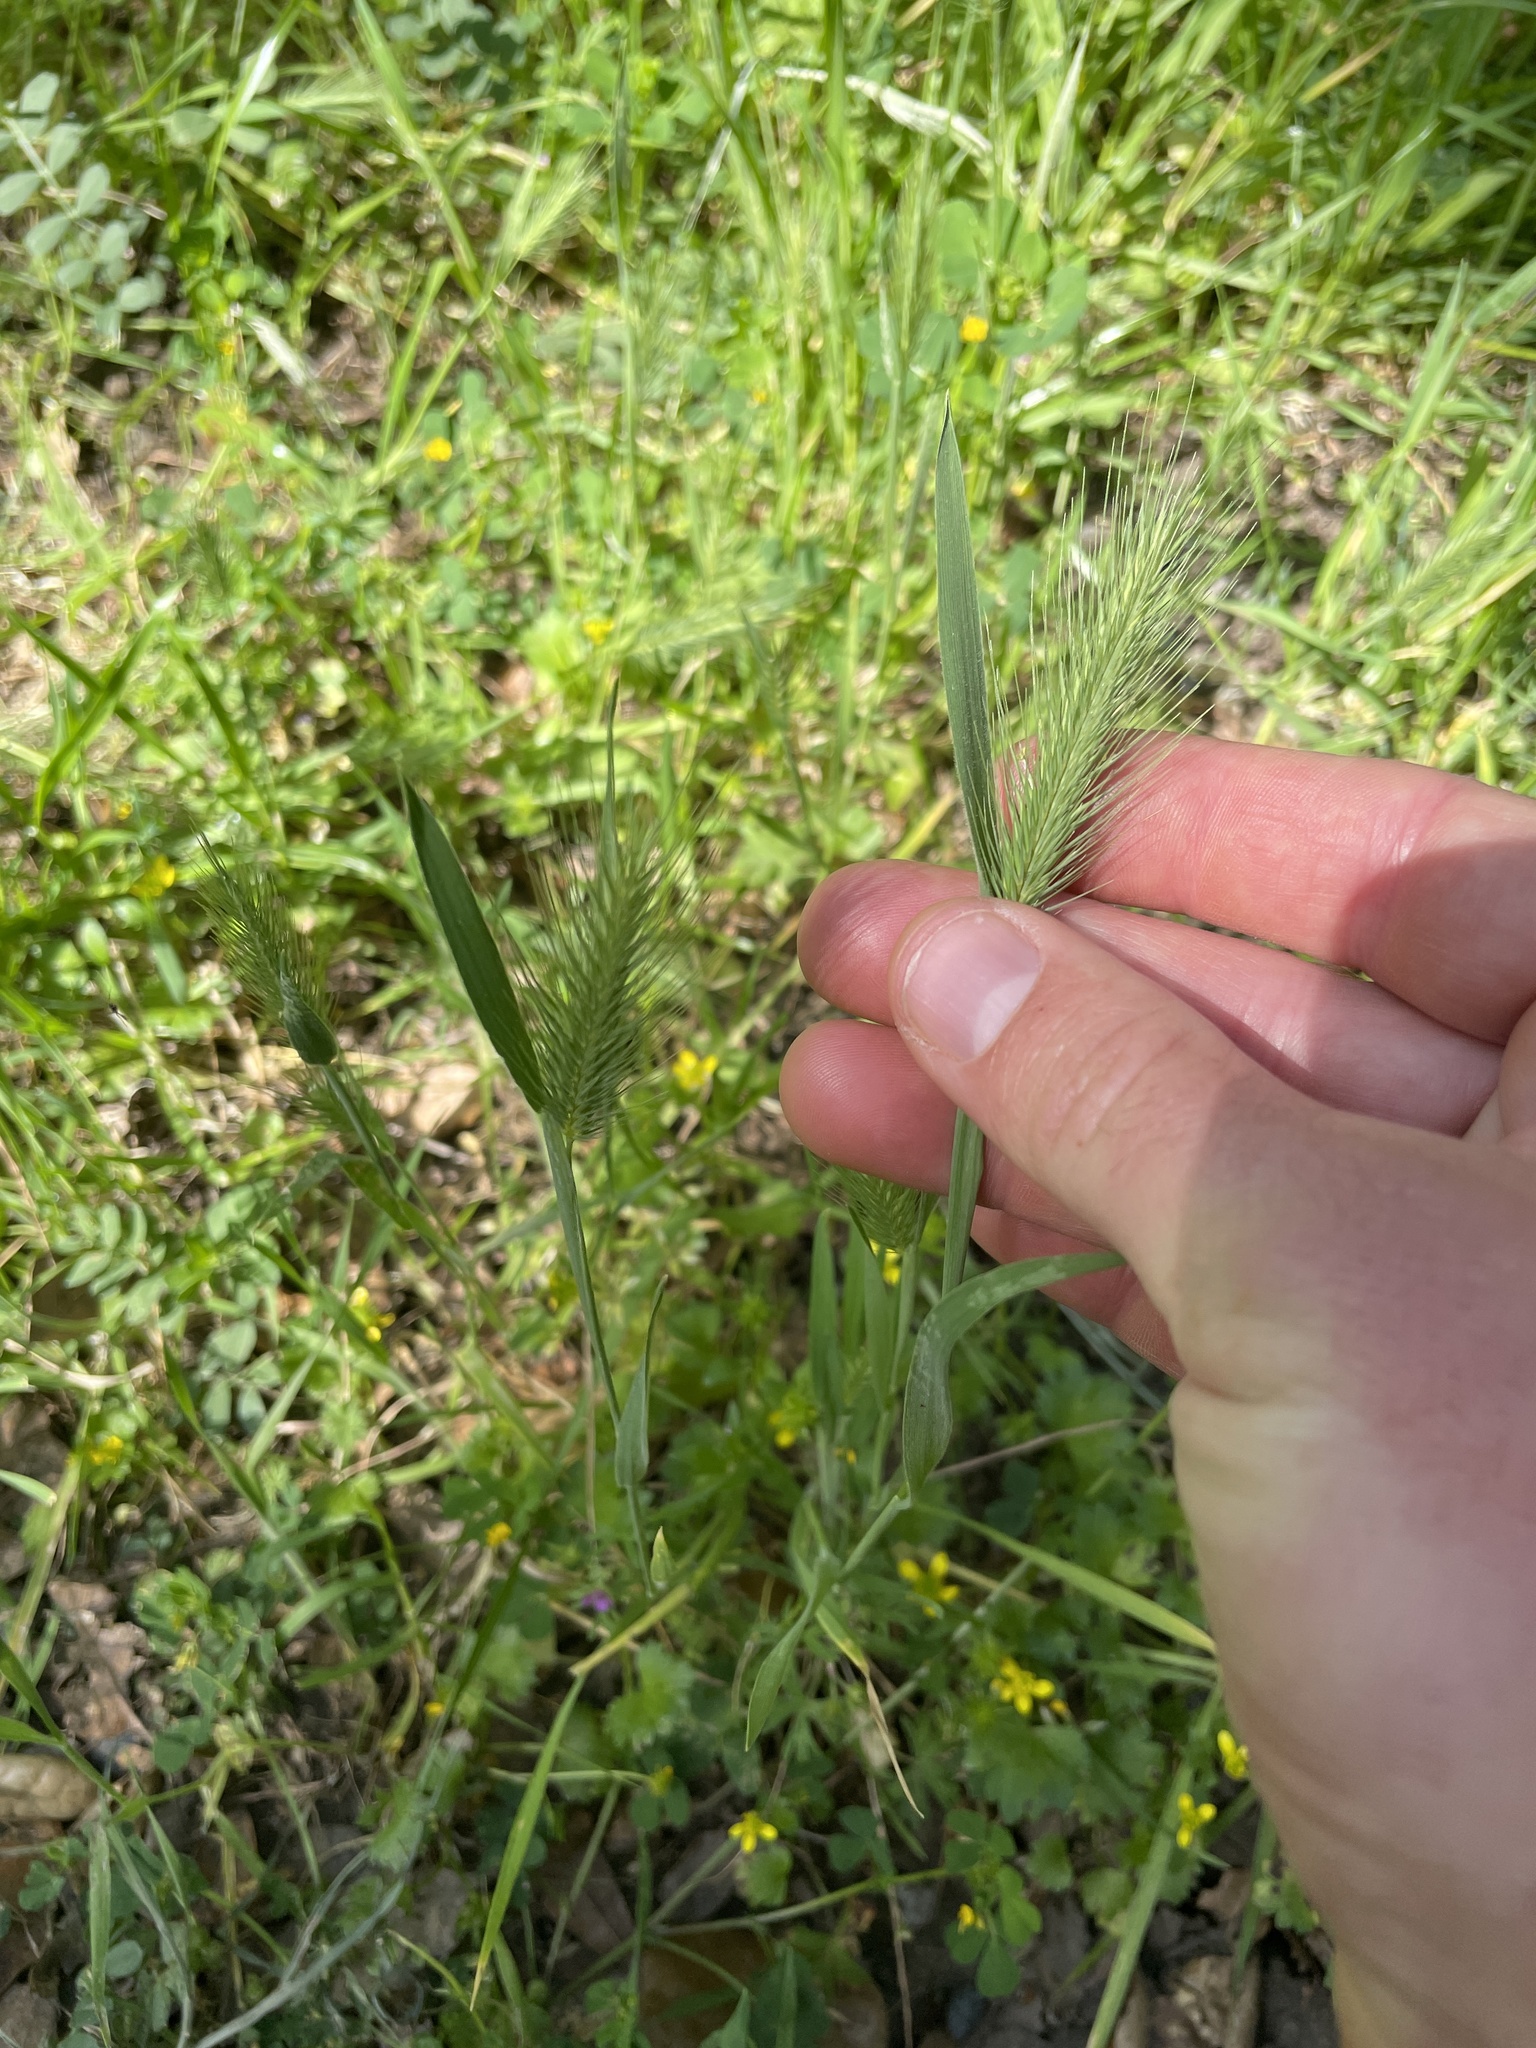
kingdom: Plantae
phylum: Tracheophyta
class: Liliopsida
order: Poales
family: Poaceae
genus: Hordeum
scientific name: Hordeum marinum
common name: Sea barley
